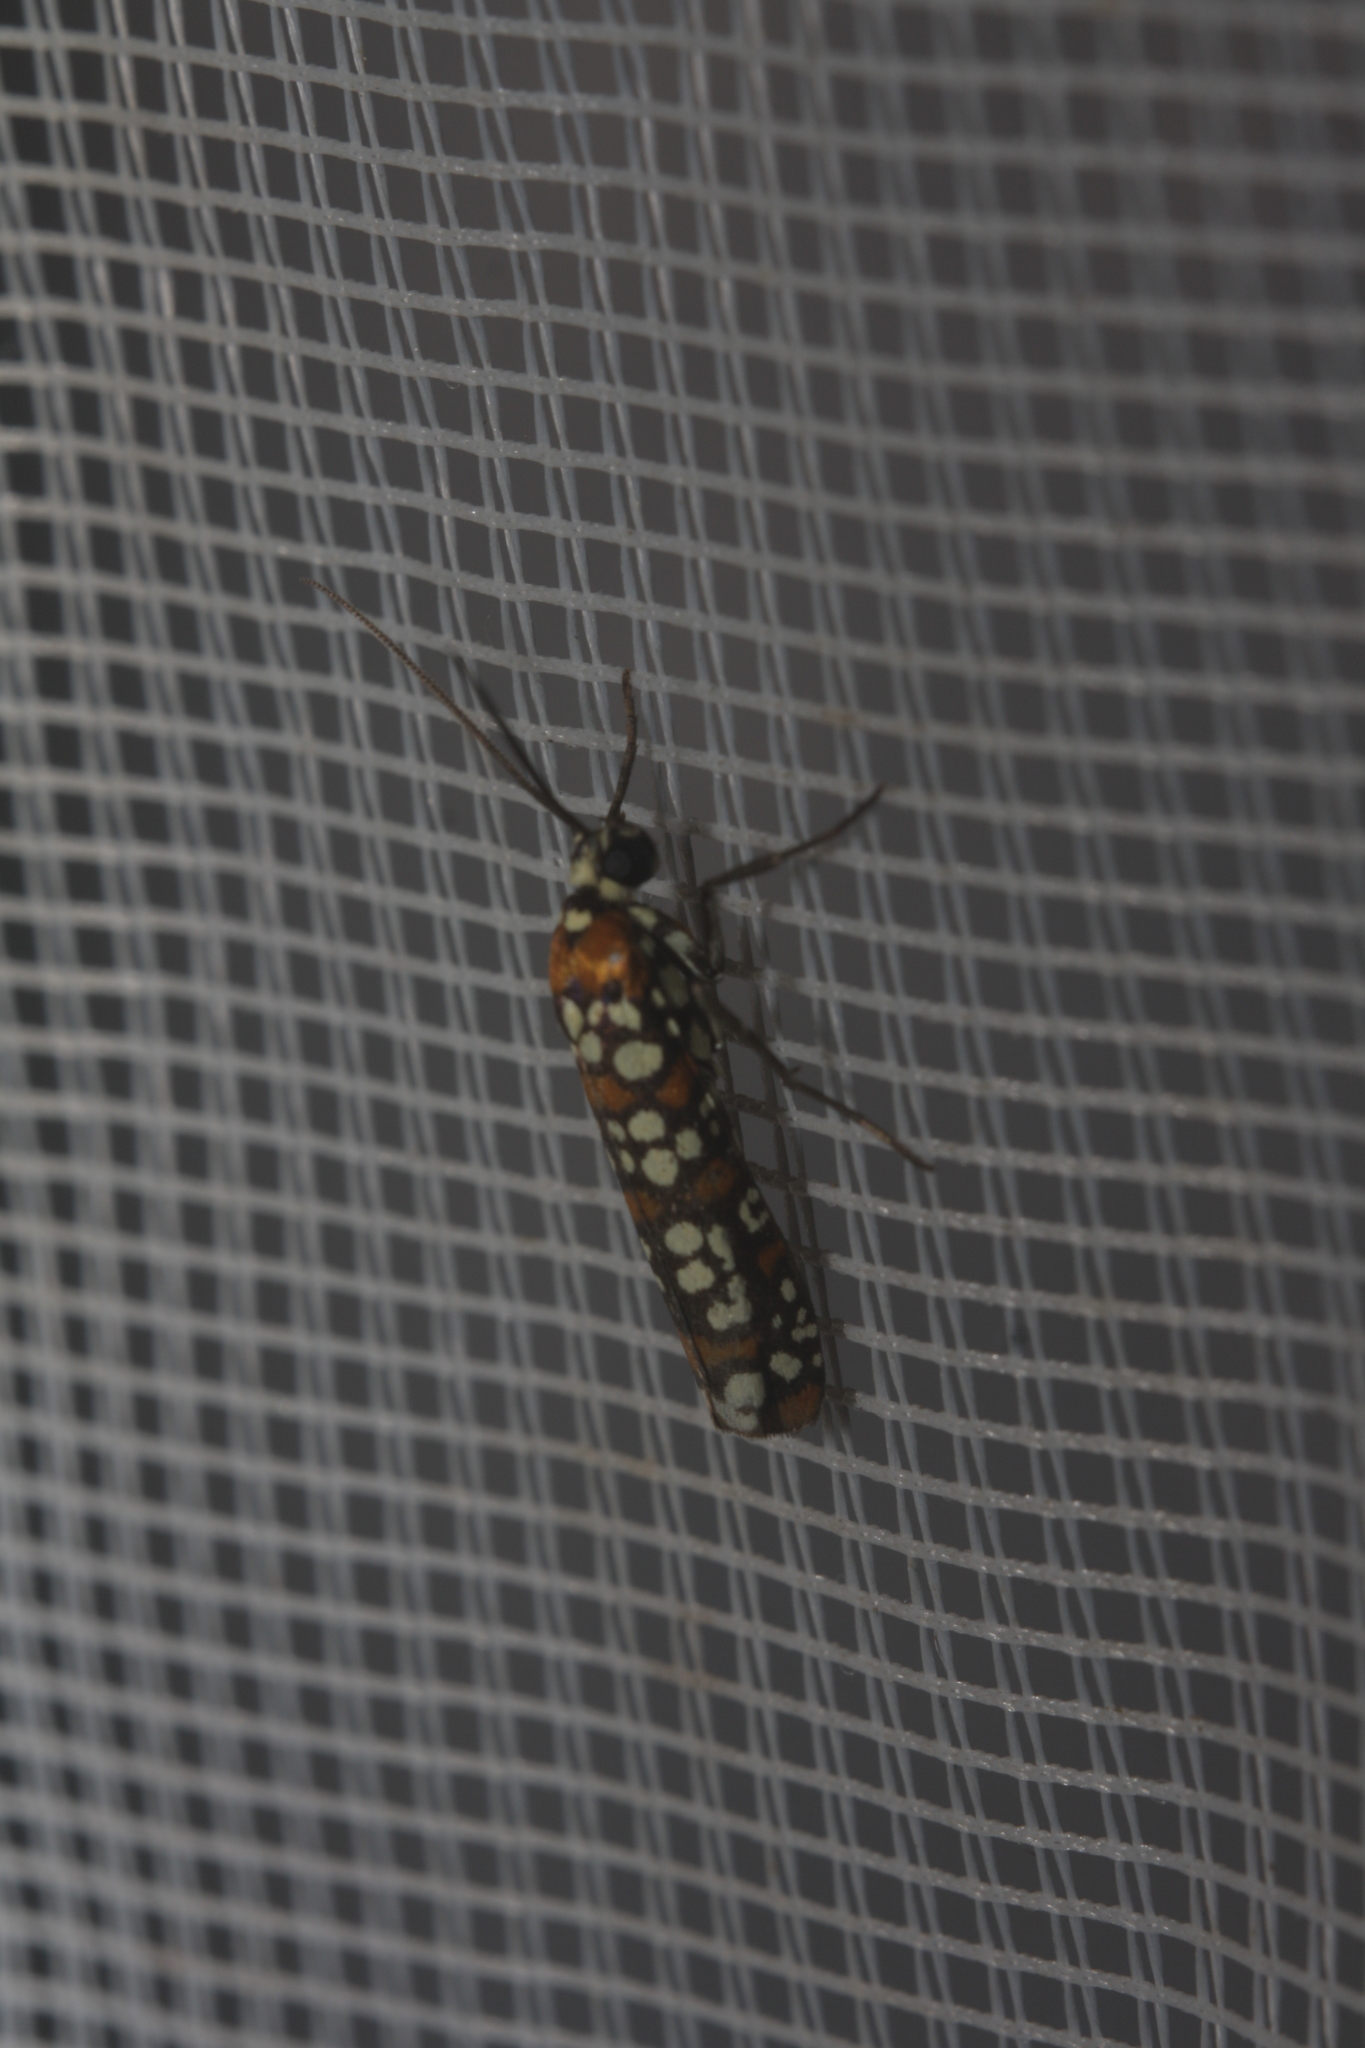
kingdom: Animalia
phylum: Arthropoda
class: Insecta
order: Lepidoptera
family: Attevidae
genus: Atteva
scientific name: Atteva punctella
